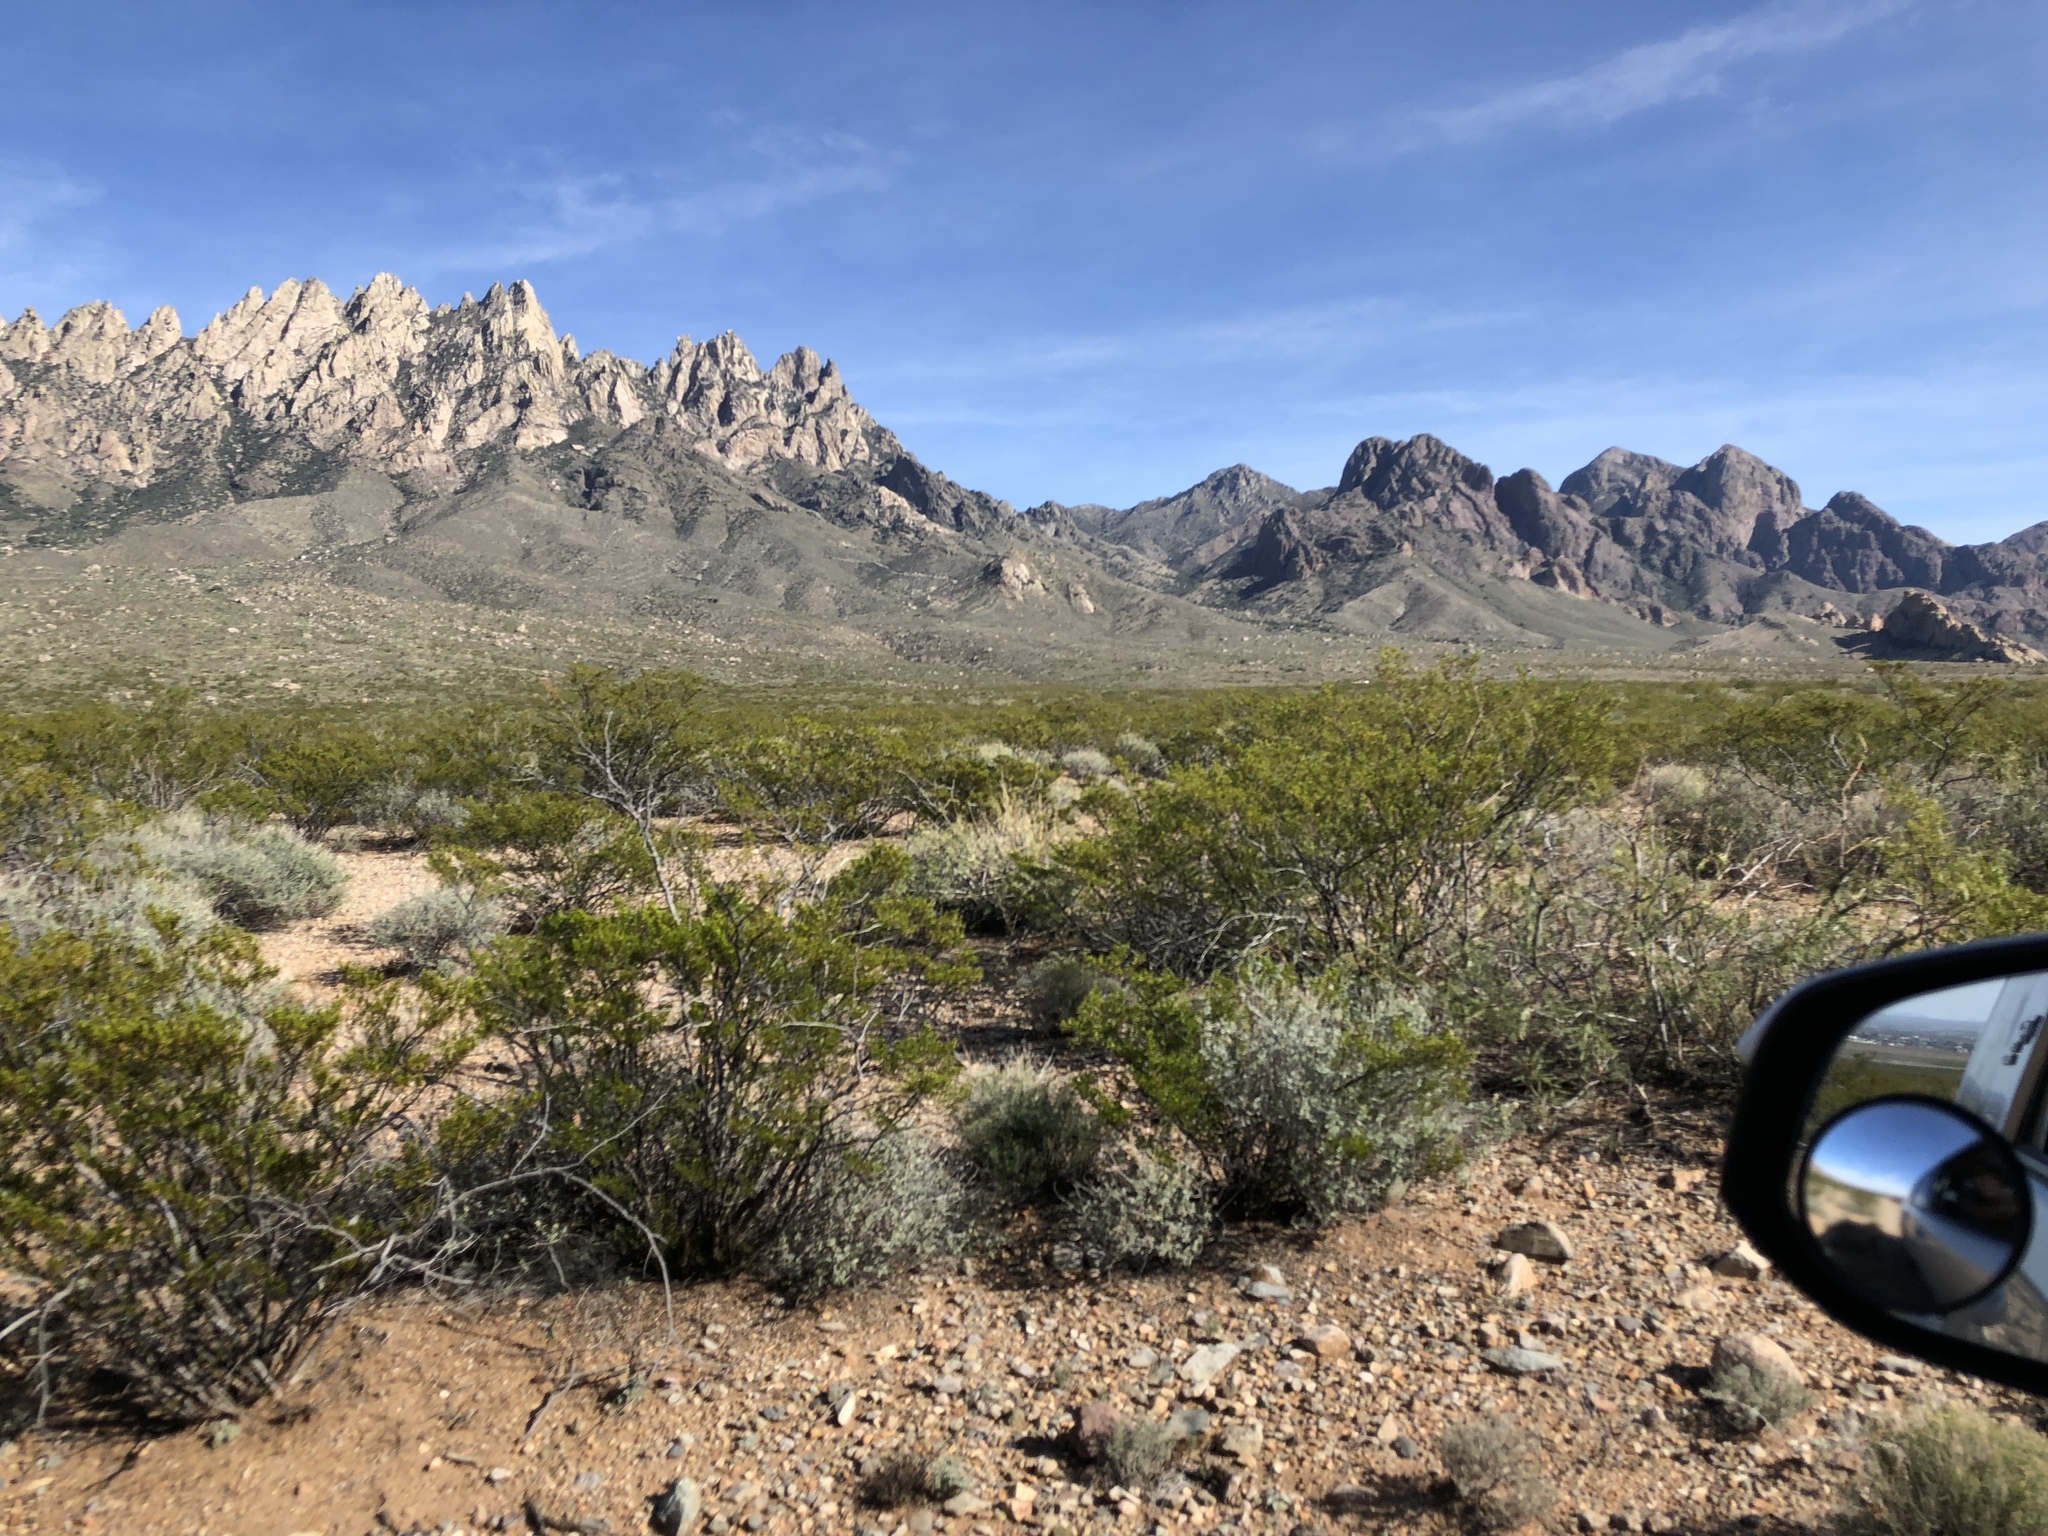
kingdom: Plantae
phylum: Tracheophyta
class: Magnoliopsida
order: Zygophyllales
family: Zygophyllaceae
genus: Larrea
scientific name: Larrea tridentata
